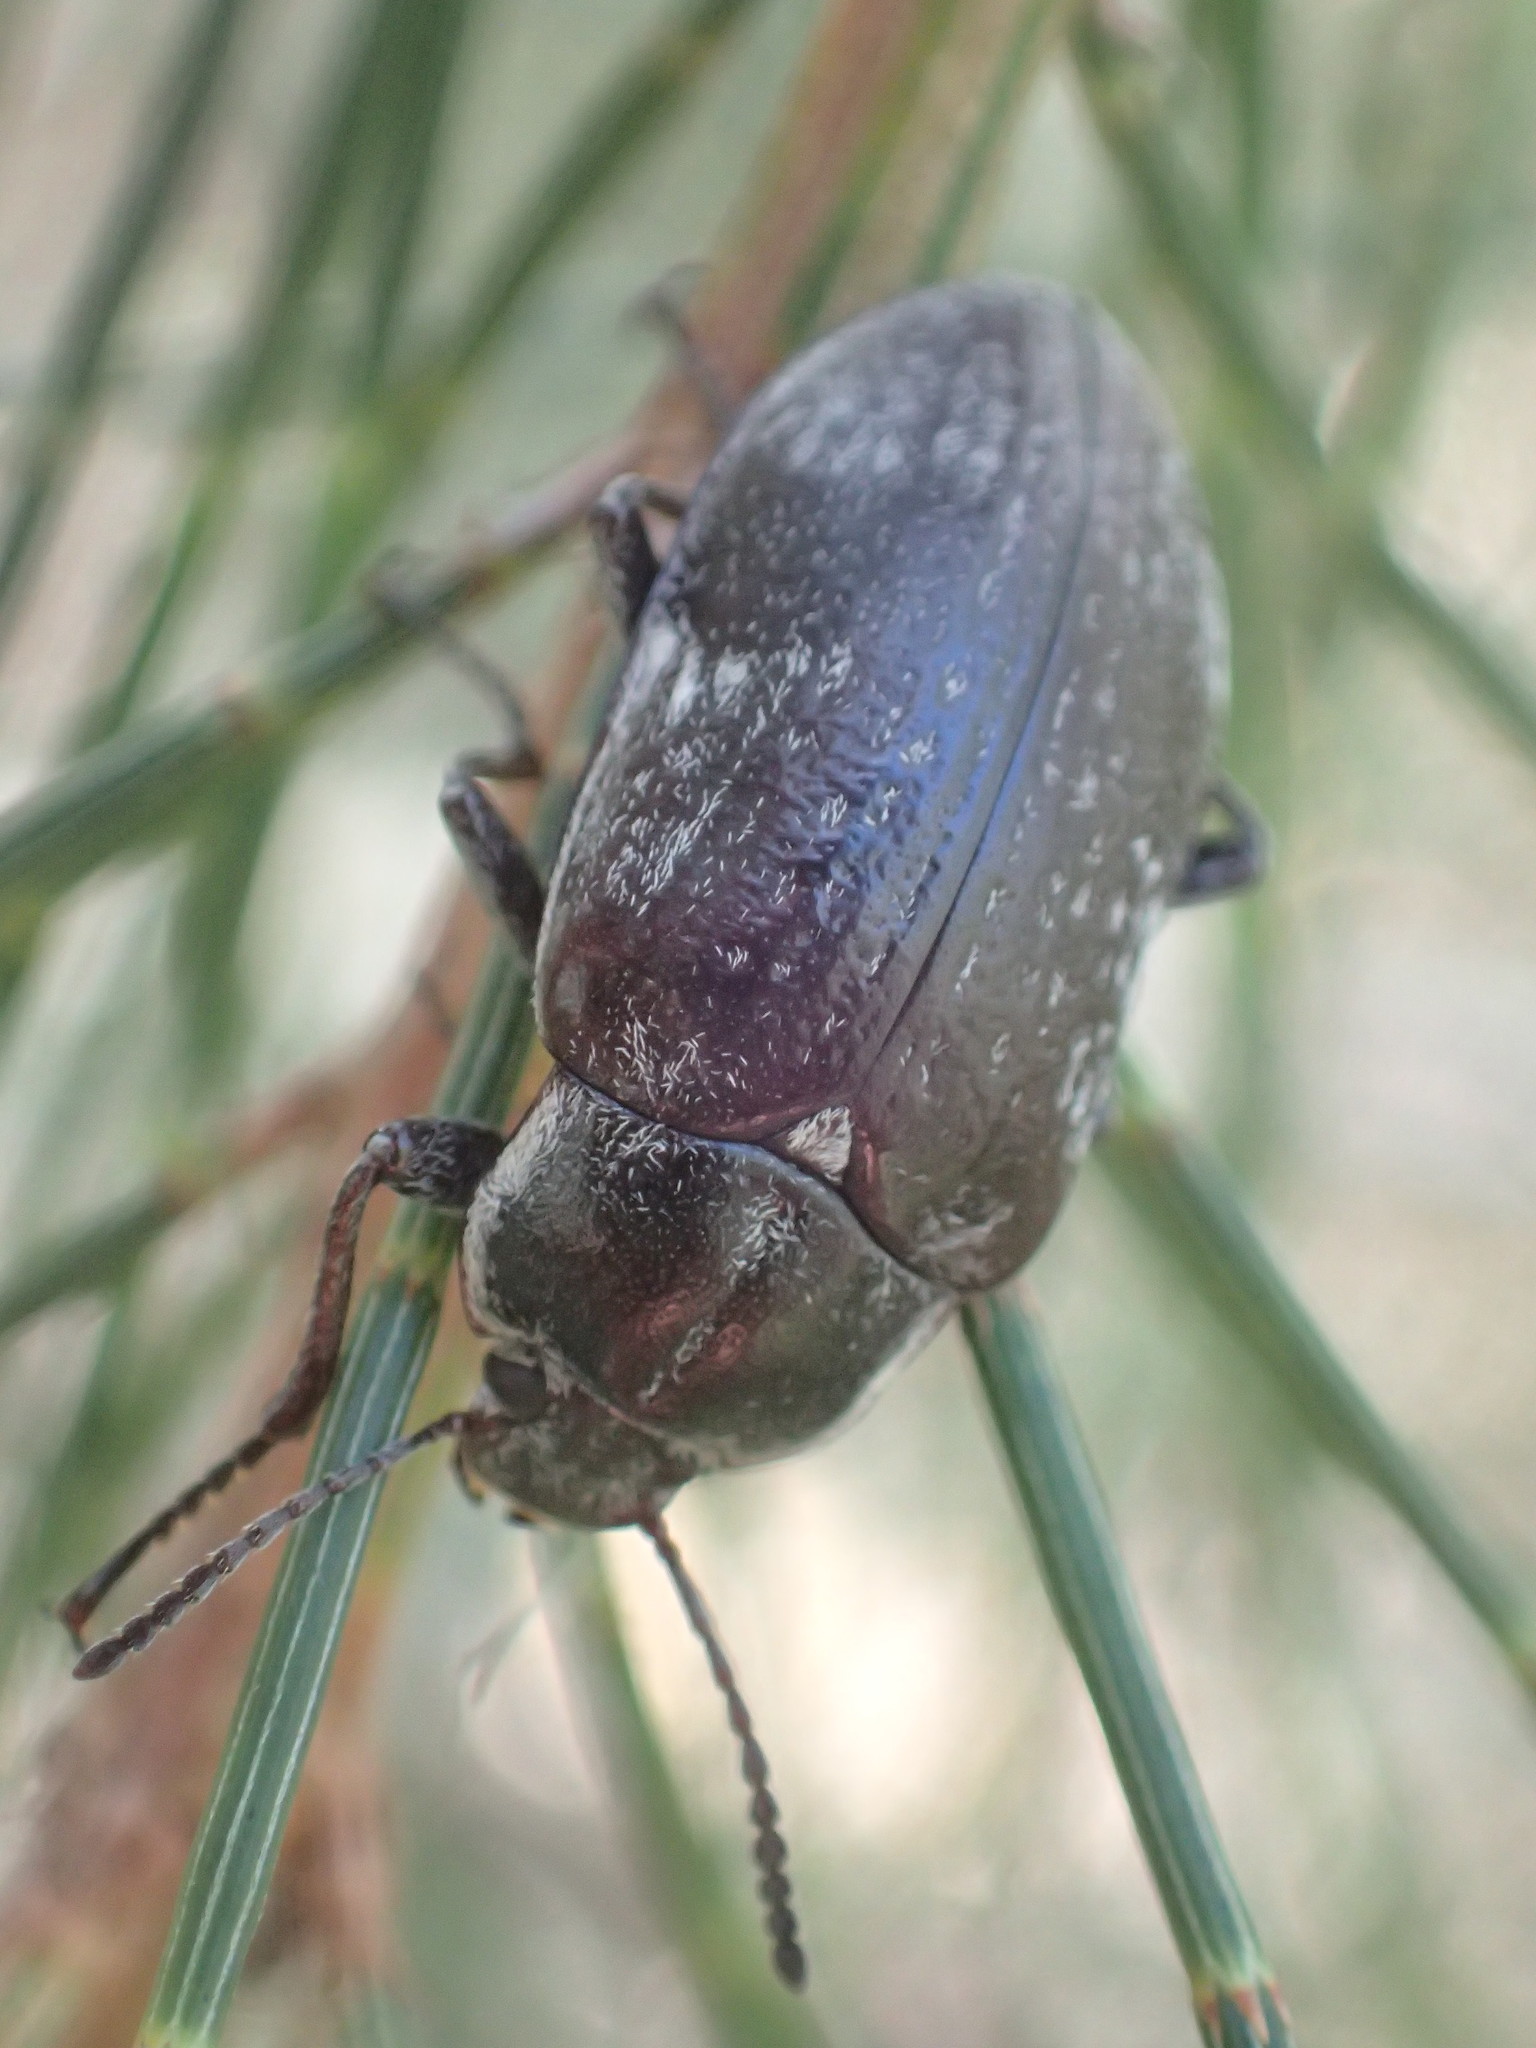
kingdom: Animalia
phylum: Arthropoda
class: Insecta
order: Coleoptera
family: Tenebrionidae
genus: Pachycoelia
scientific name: Pachycoelia
